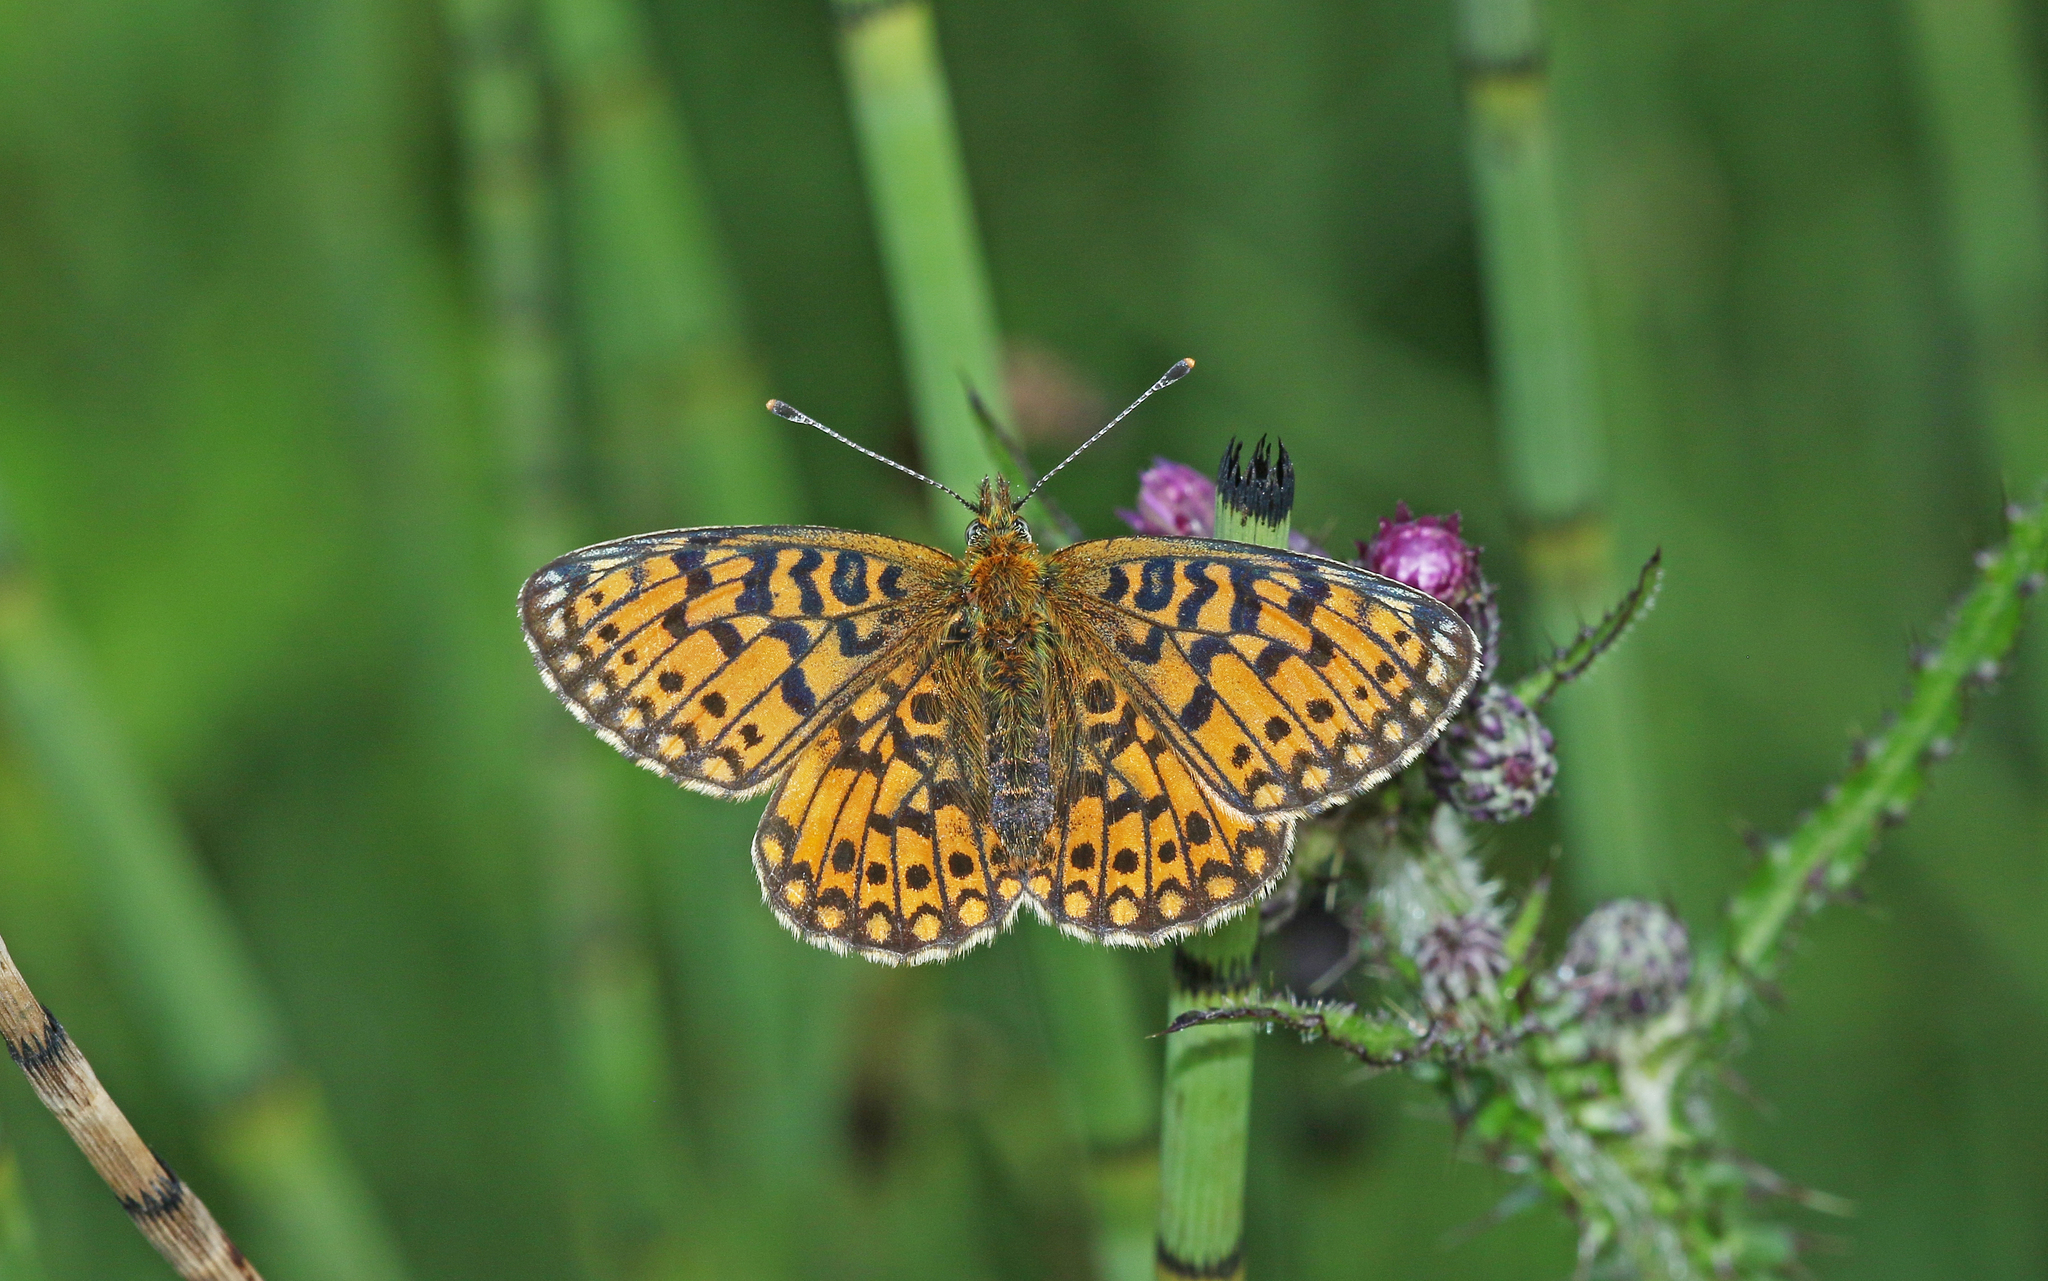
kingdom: Animalia
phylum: Arthropoda
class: Insecta
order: Lepidoptera
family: Nymphalidae
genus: Boloria
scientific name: Boloria selene
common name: Small pearl-bordered fritillary
